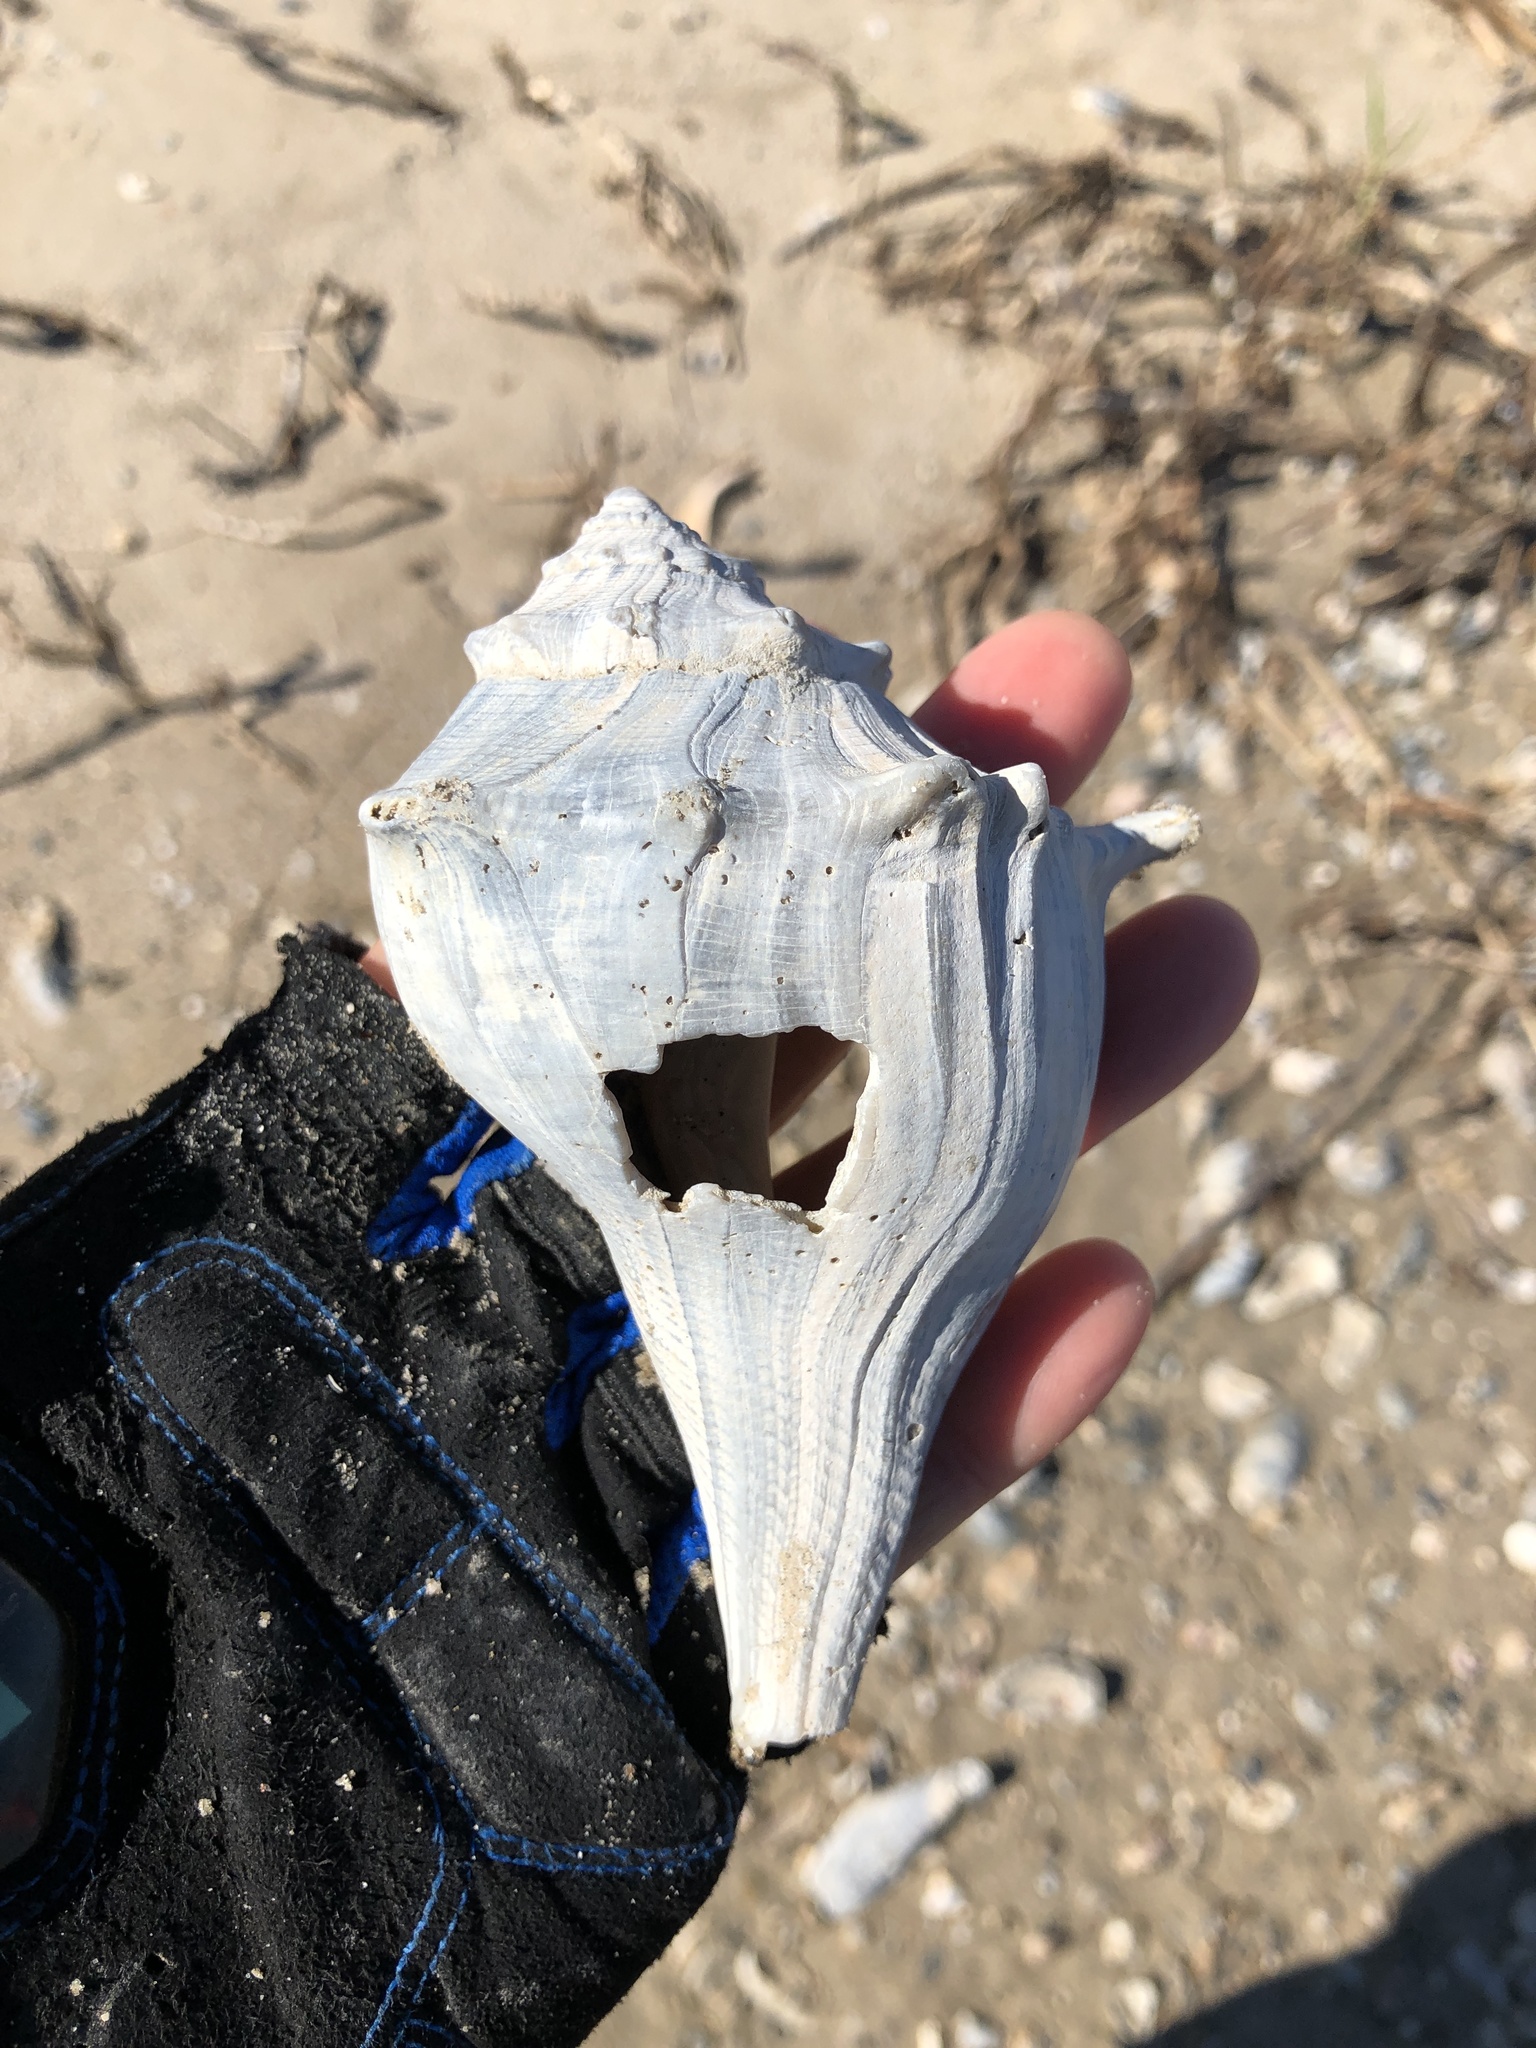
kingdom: Animalia
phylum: Mollusca
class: Gastropoda
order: Neogastropoda
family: Busyconidae
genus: Sinistrofulgur
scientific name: Sinistrofulgur pulleyi
